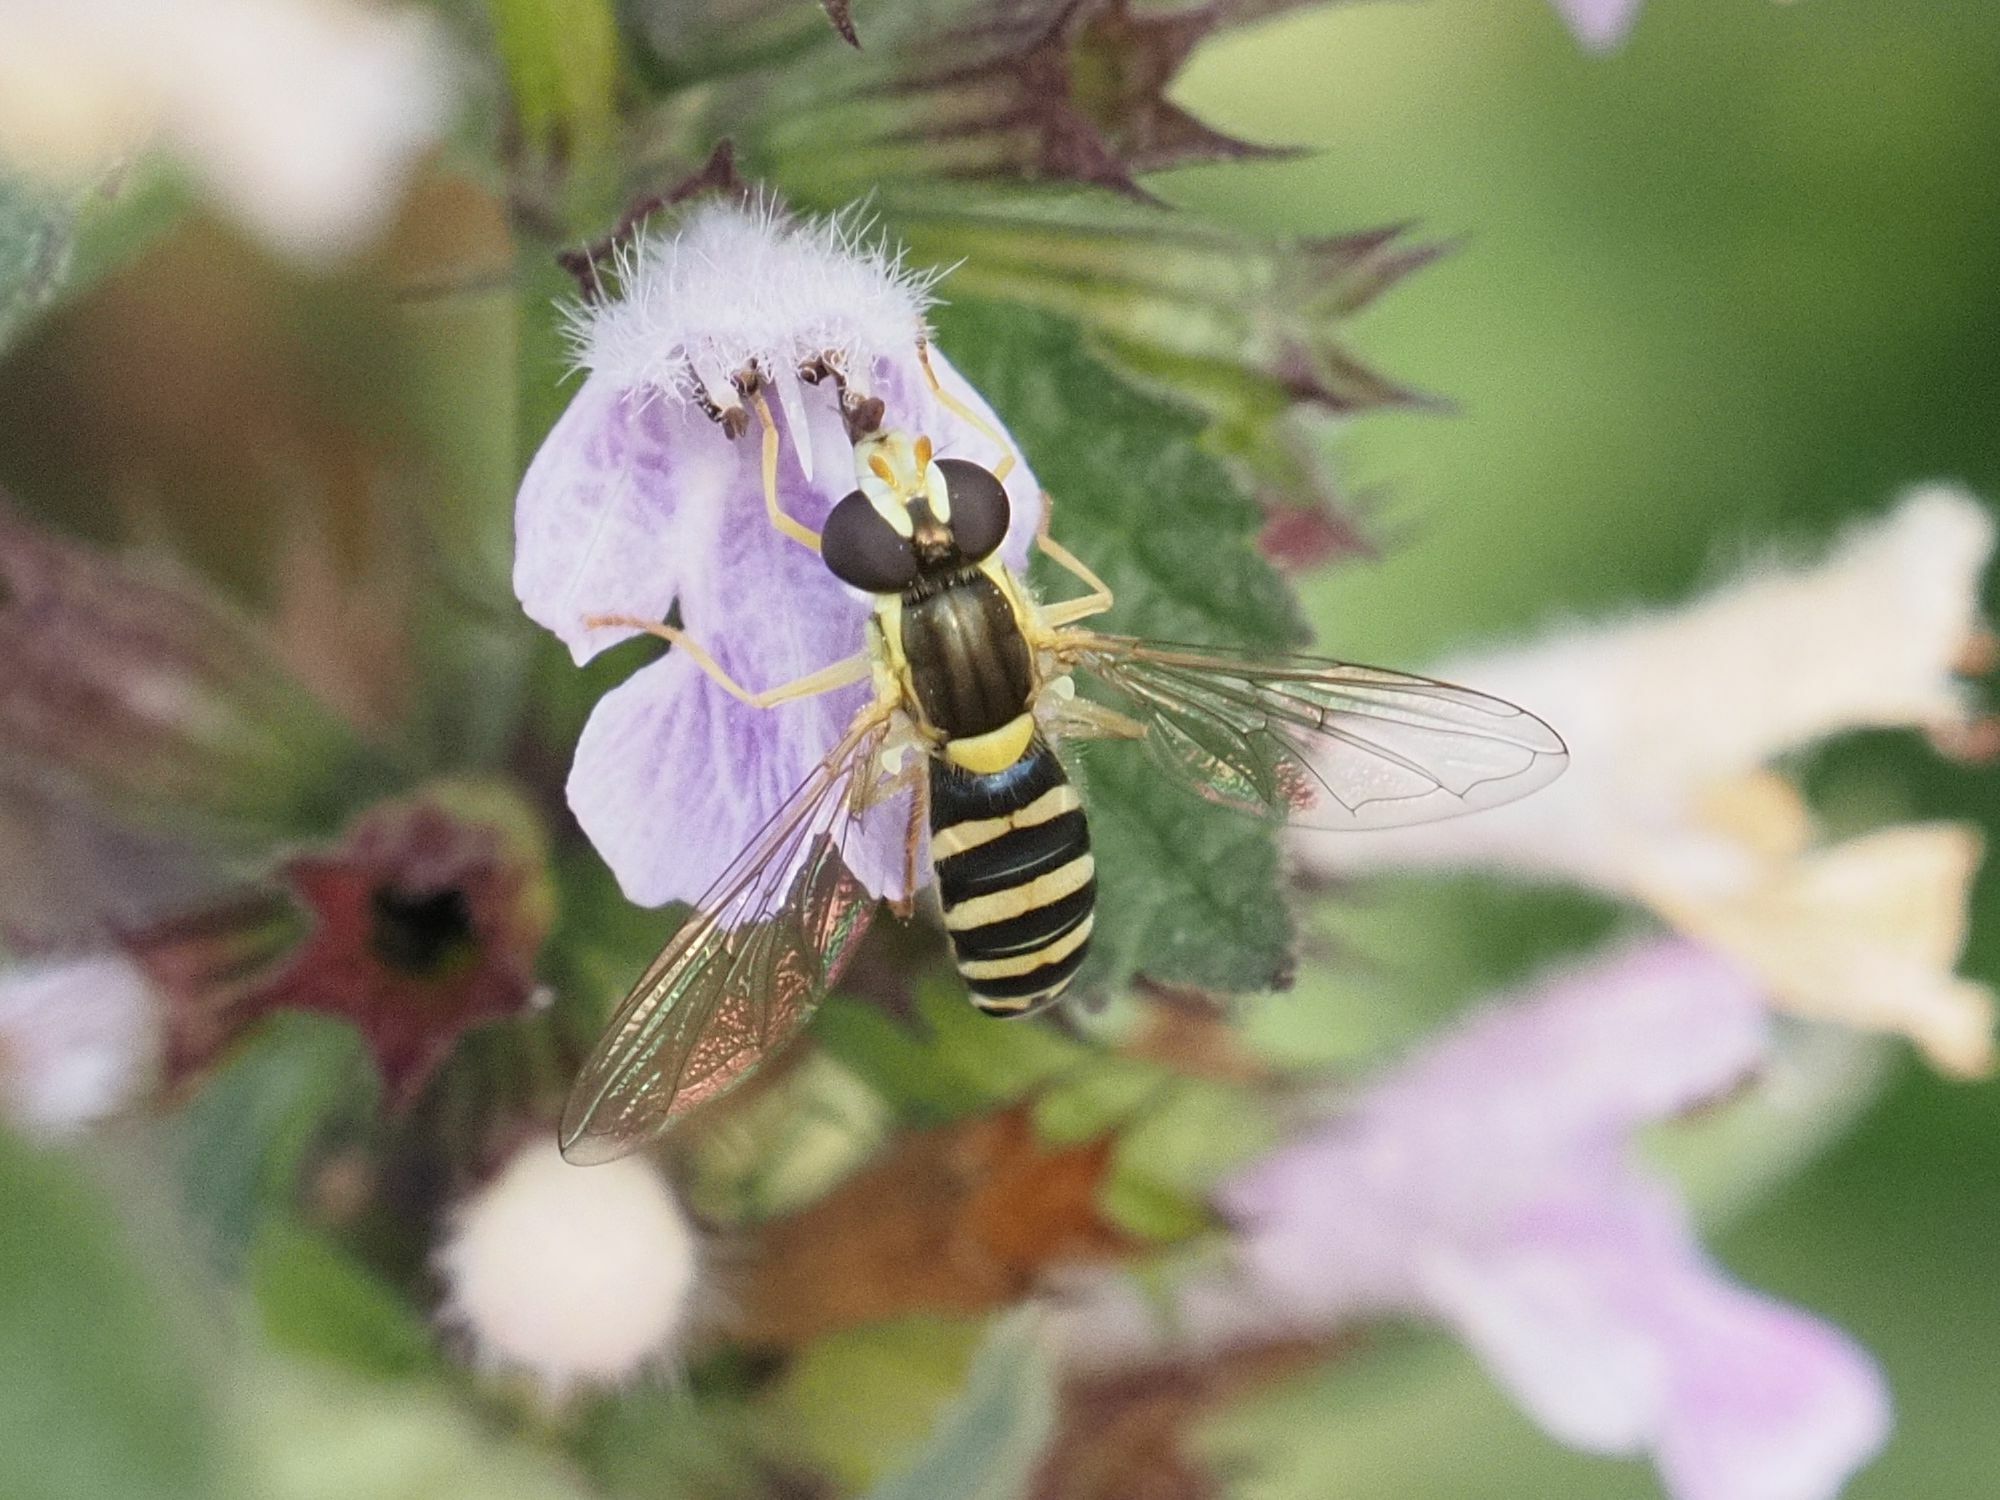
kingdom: Animalia
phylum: Arthropoda
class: Insecta
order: Diptera
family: Syrphidae
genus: Sphaerophoria
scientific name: Sphaerophoria
